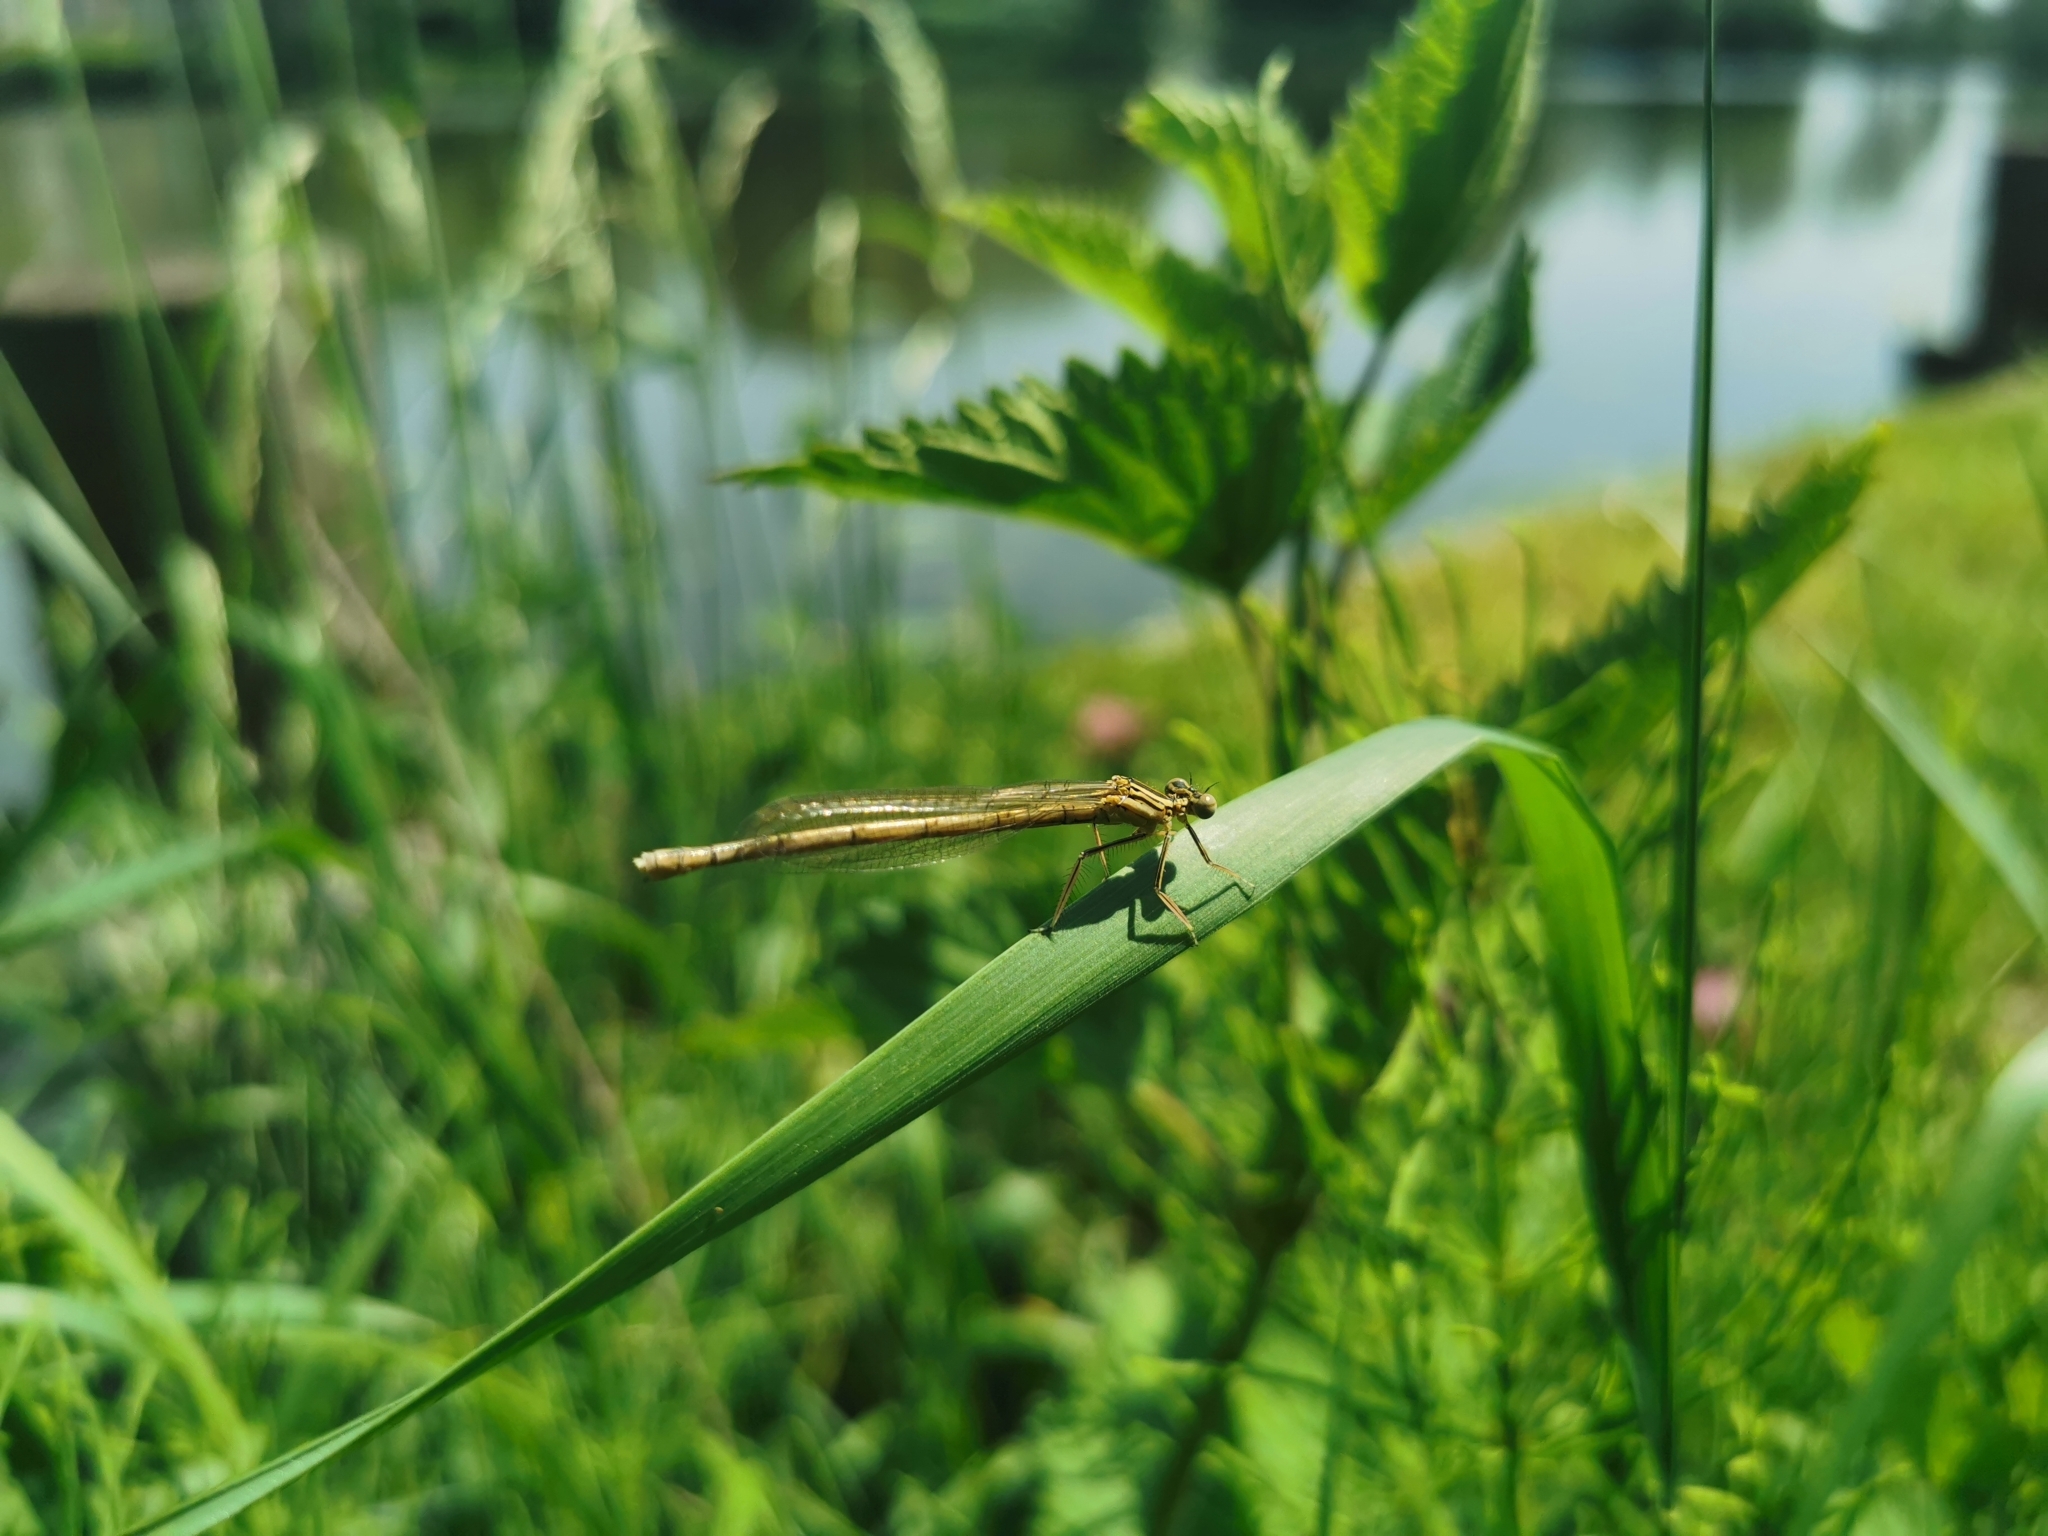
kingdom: Animalia
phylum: Arthropoda
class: Insecta
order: Odonata
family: Platycnemididae
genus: Platycnemis
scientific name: Platycnemis pennipes
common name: White-legged damselfly
